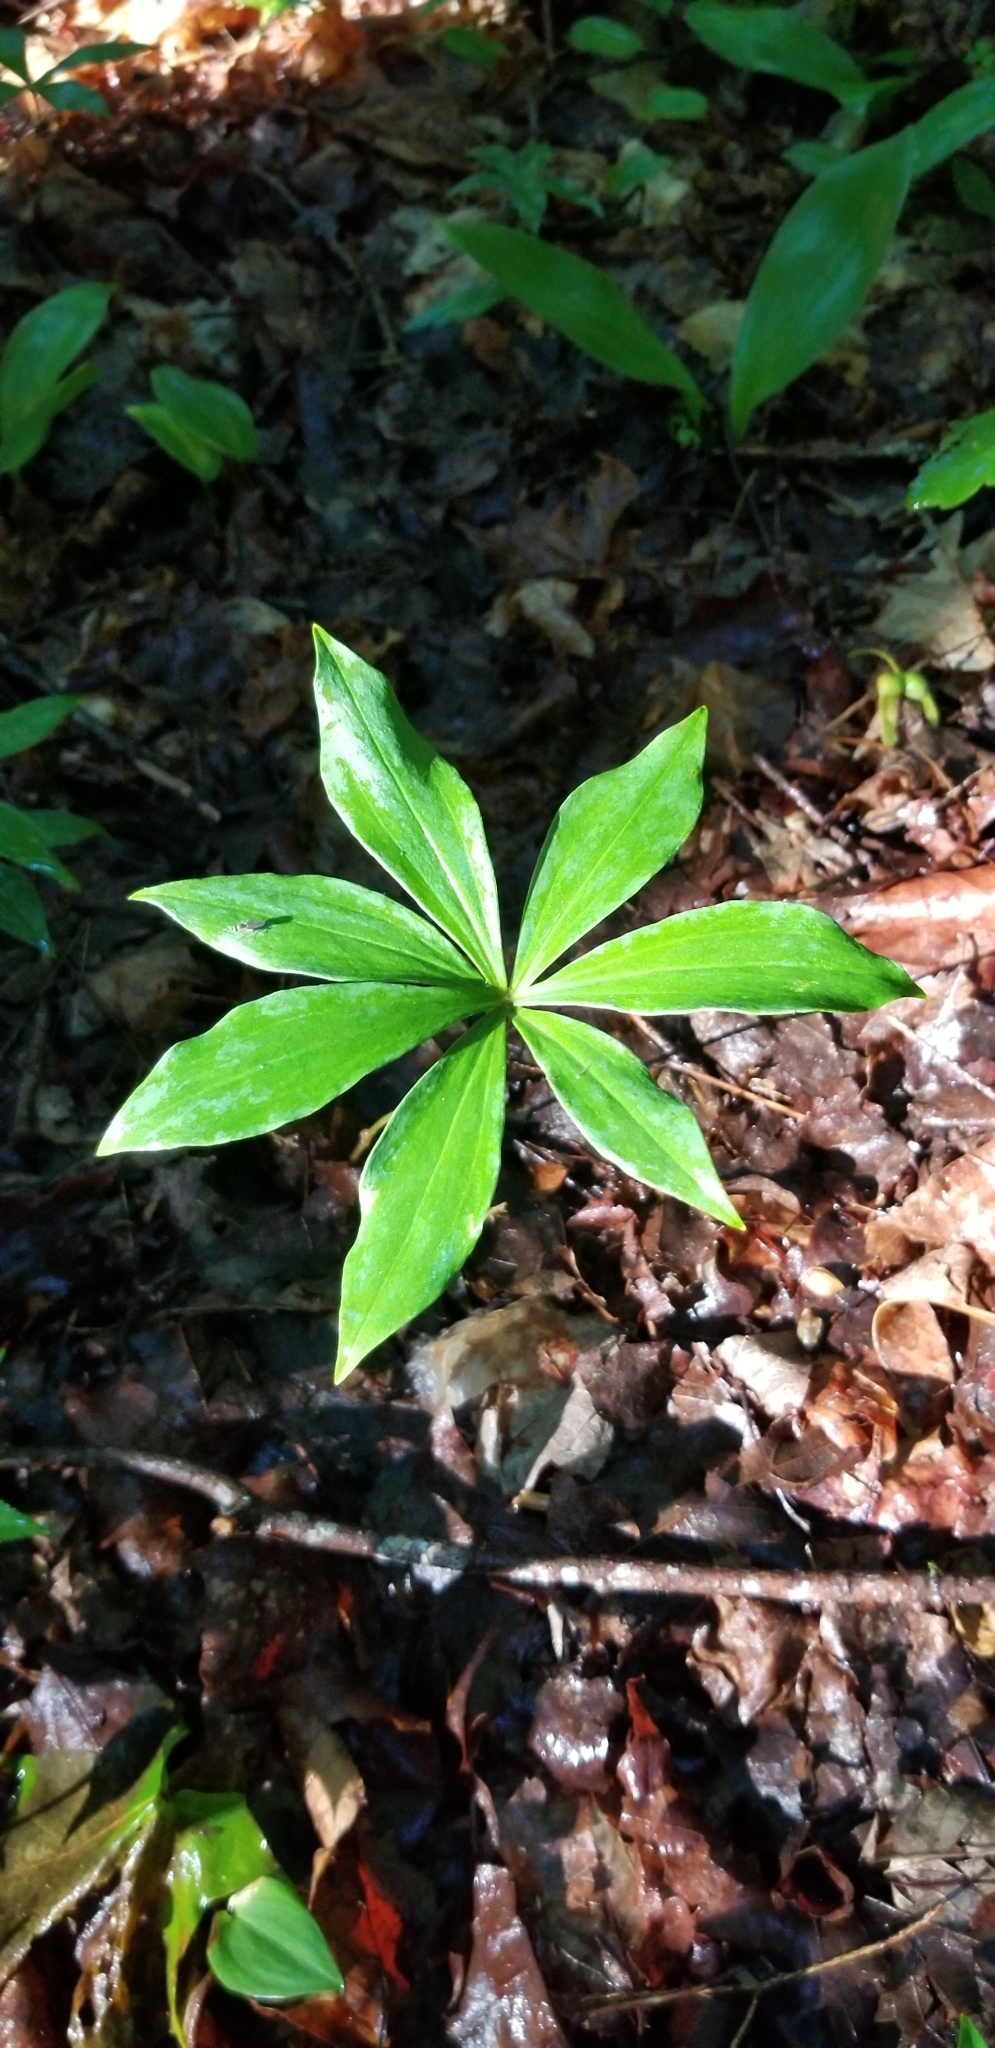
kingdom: Plantae
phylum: Tracheophyta
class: Liliopsida
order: Liliales
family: Liliaceae
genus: Medeola
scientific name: Medeola virginiana
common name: Indian cucumber-root
